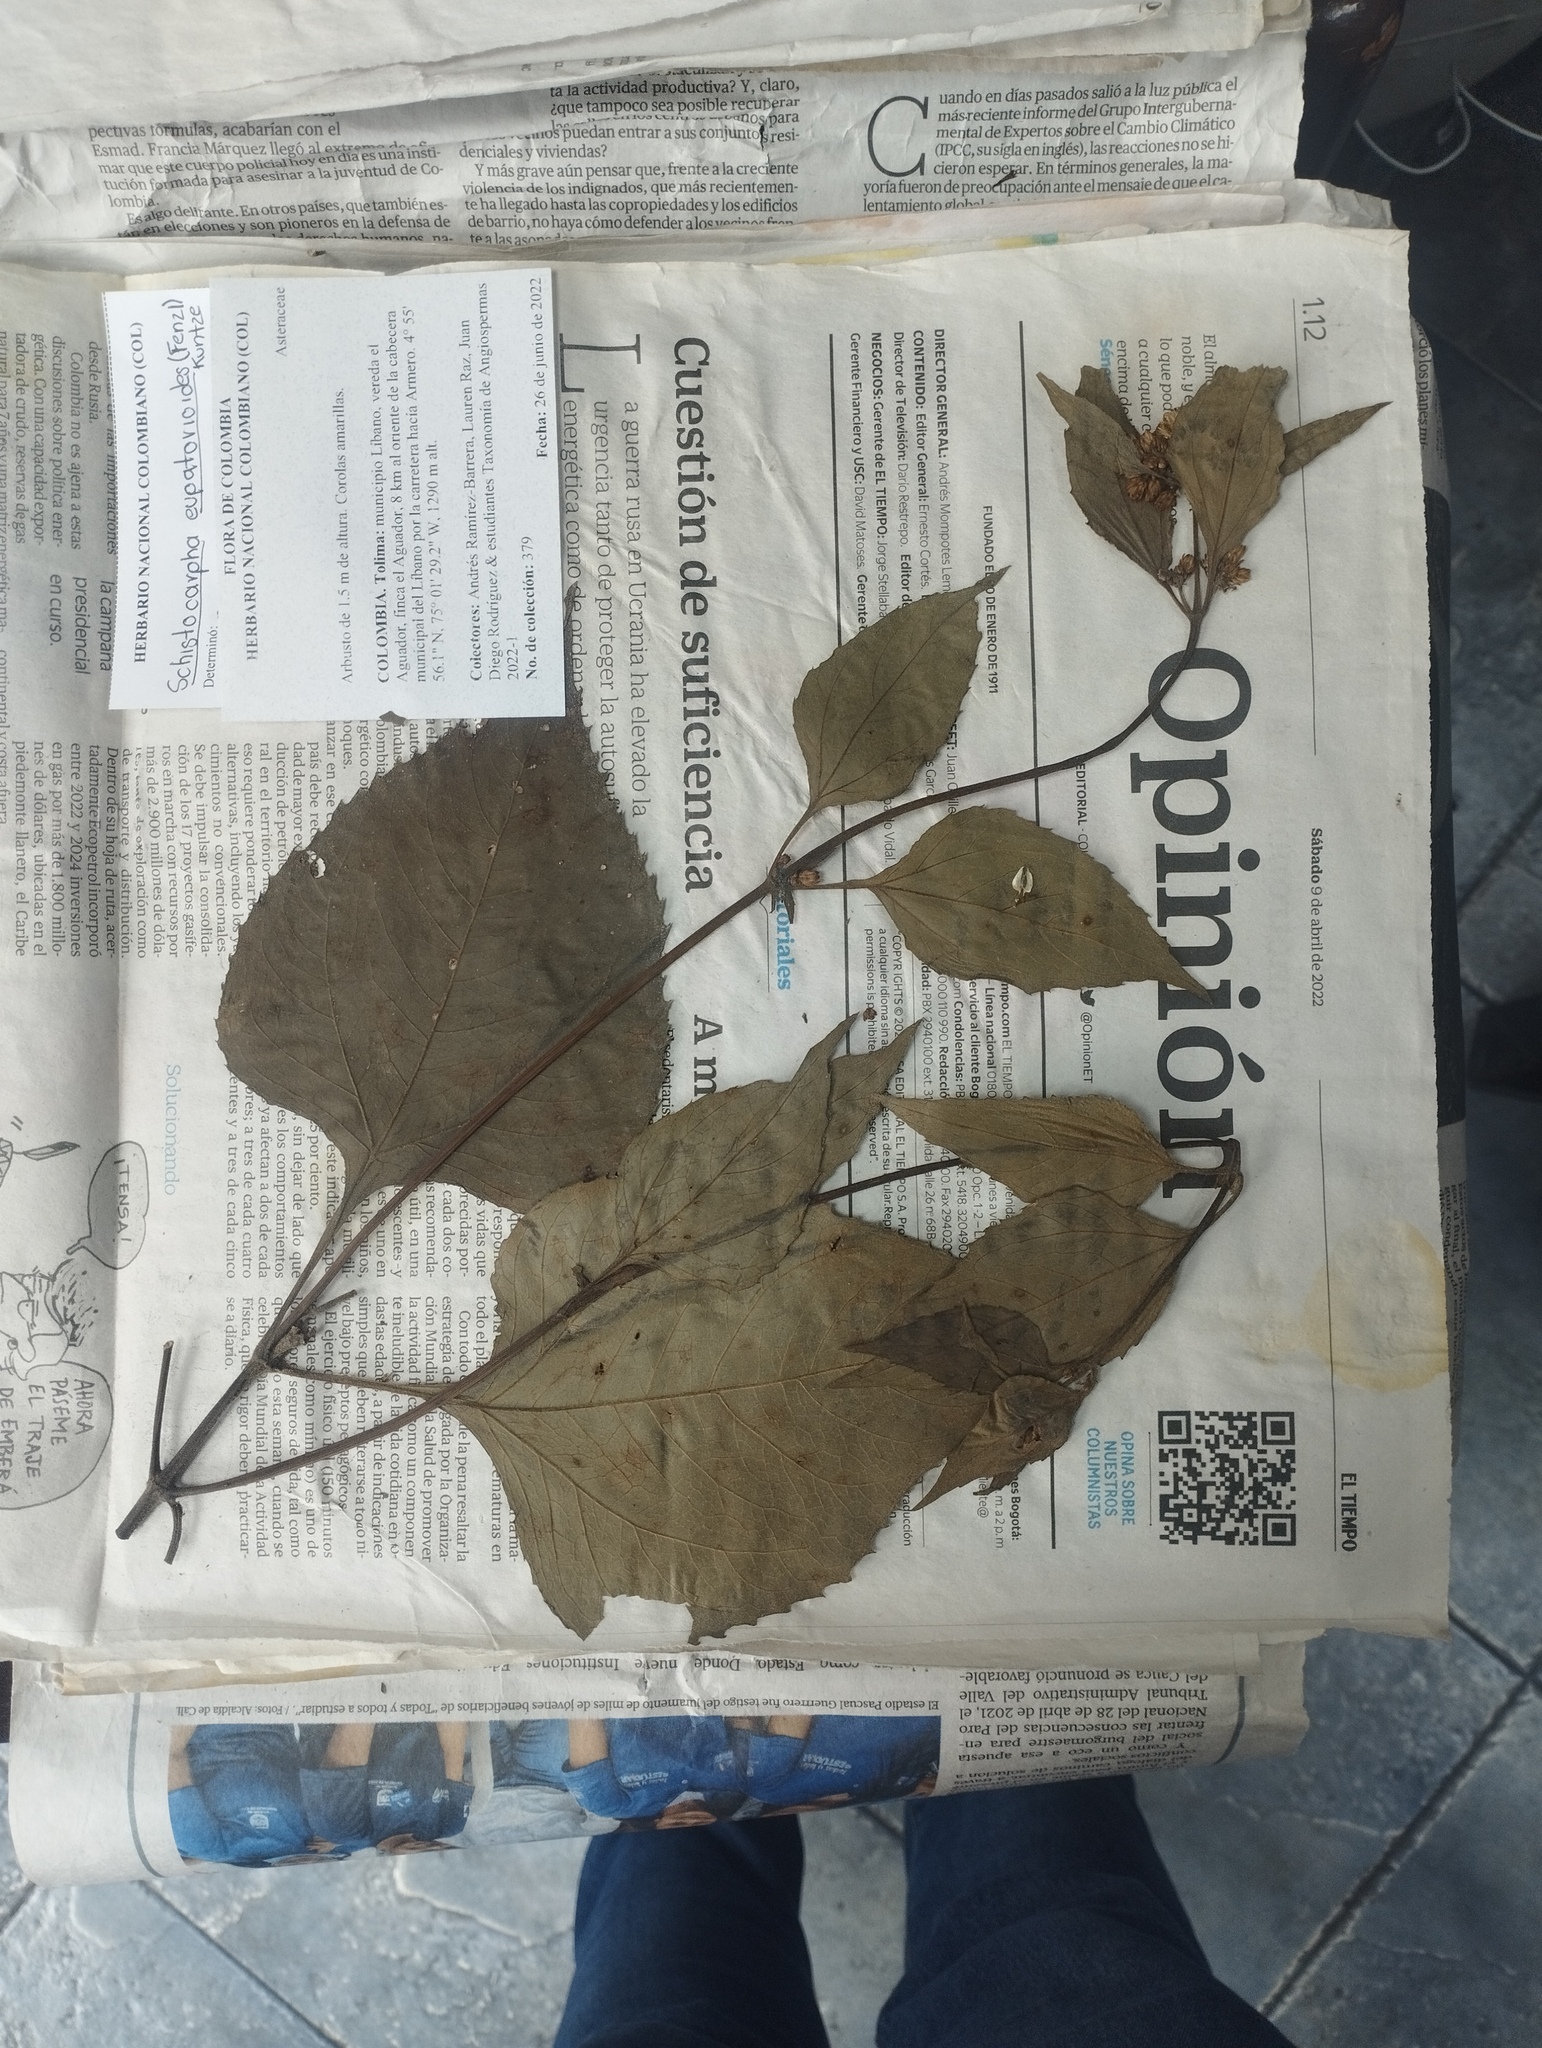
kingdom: Plantae
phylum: Tracheophyta
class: Magnoliopsida
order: Asterales
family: Asteraceae
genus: Schistocarpha
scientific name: Schistocarpha eupatorioides
